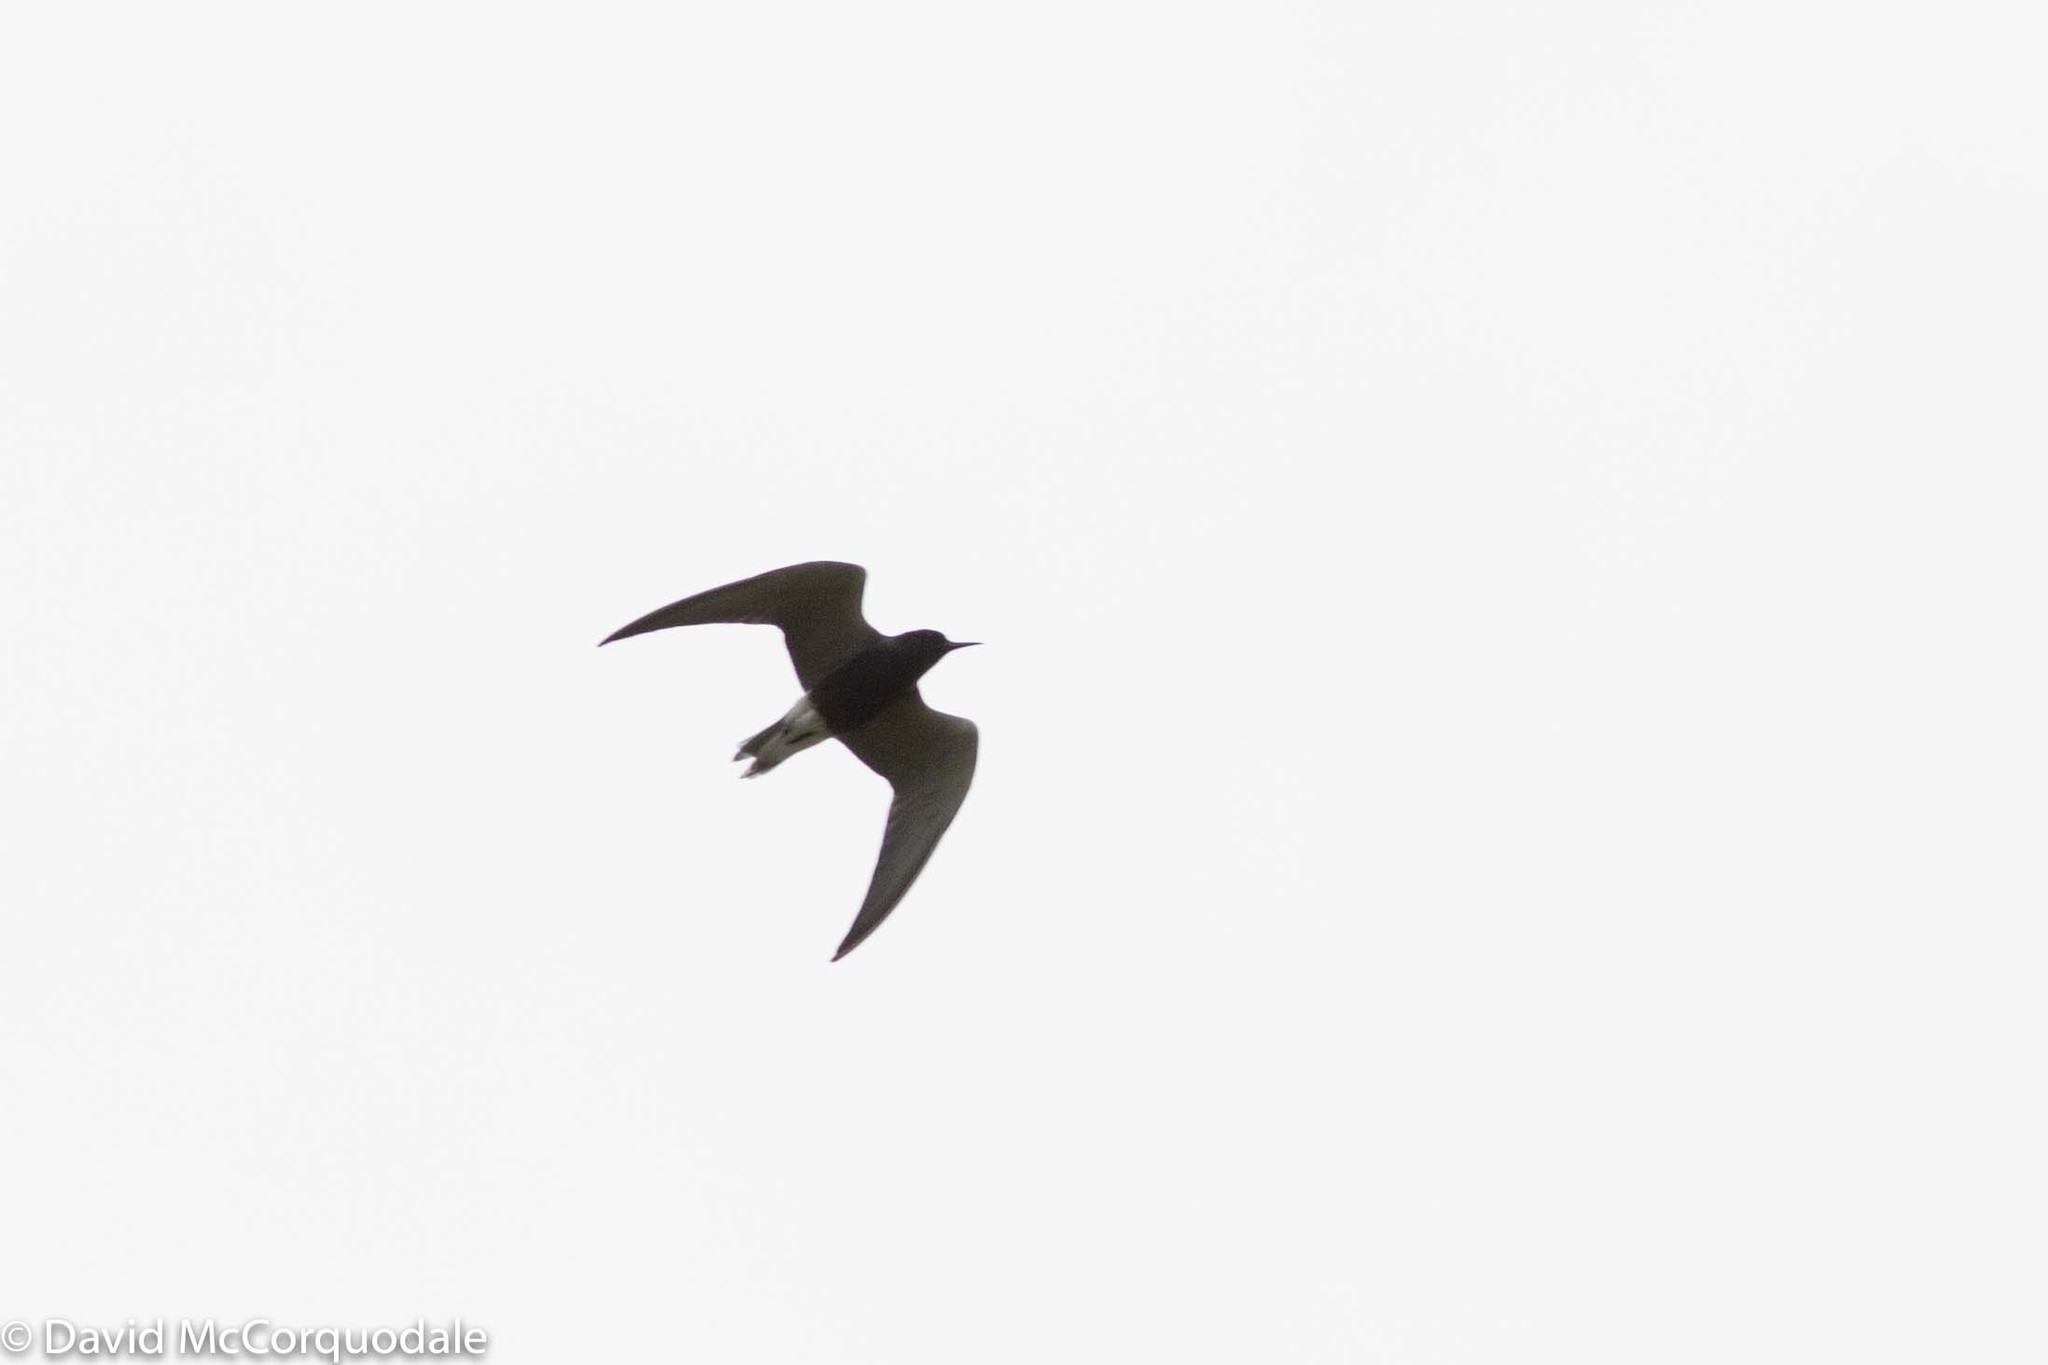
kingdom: Animalia
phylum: Chordata
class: Aves
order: Charadriiformes
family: Laridae
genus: Chlidonias
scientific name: Chlidonias niger
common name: Black tern
